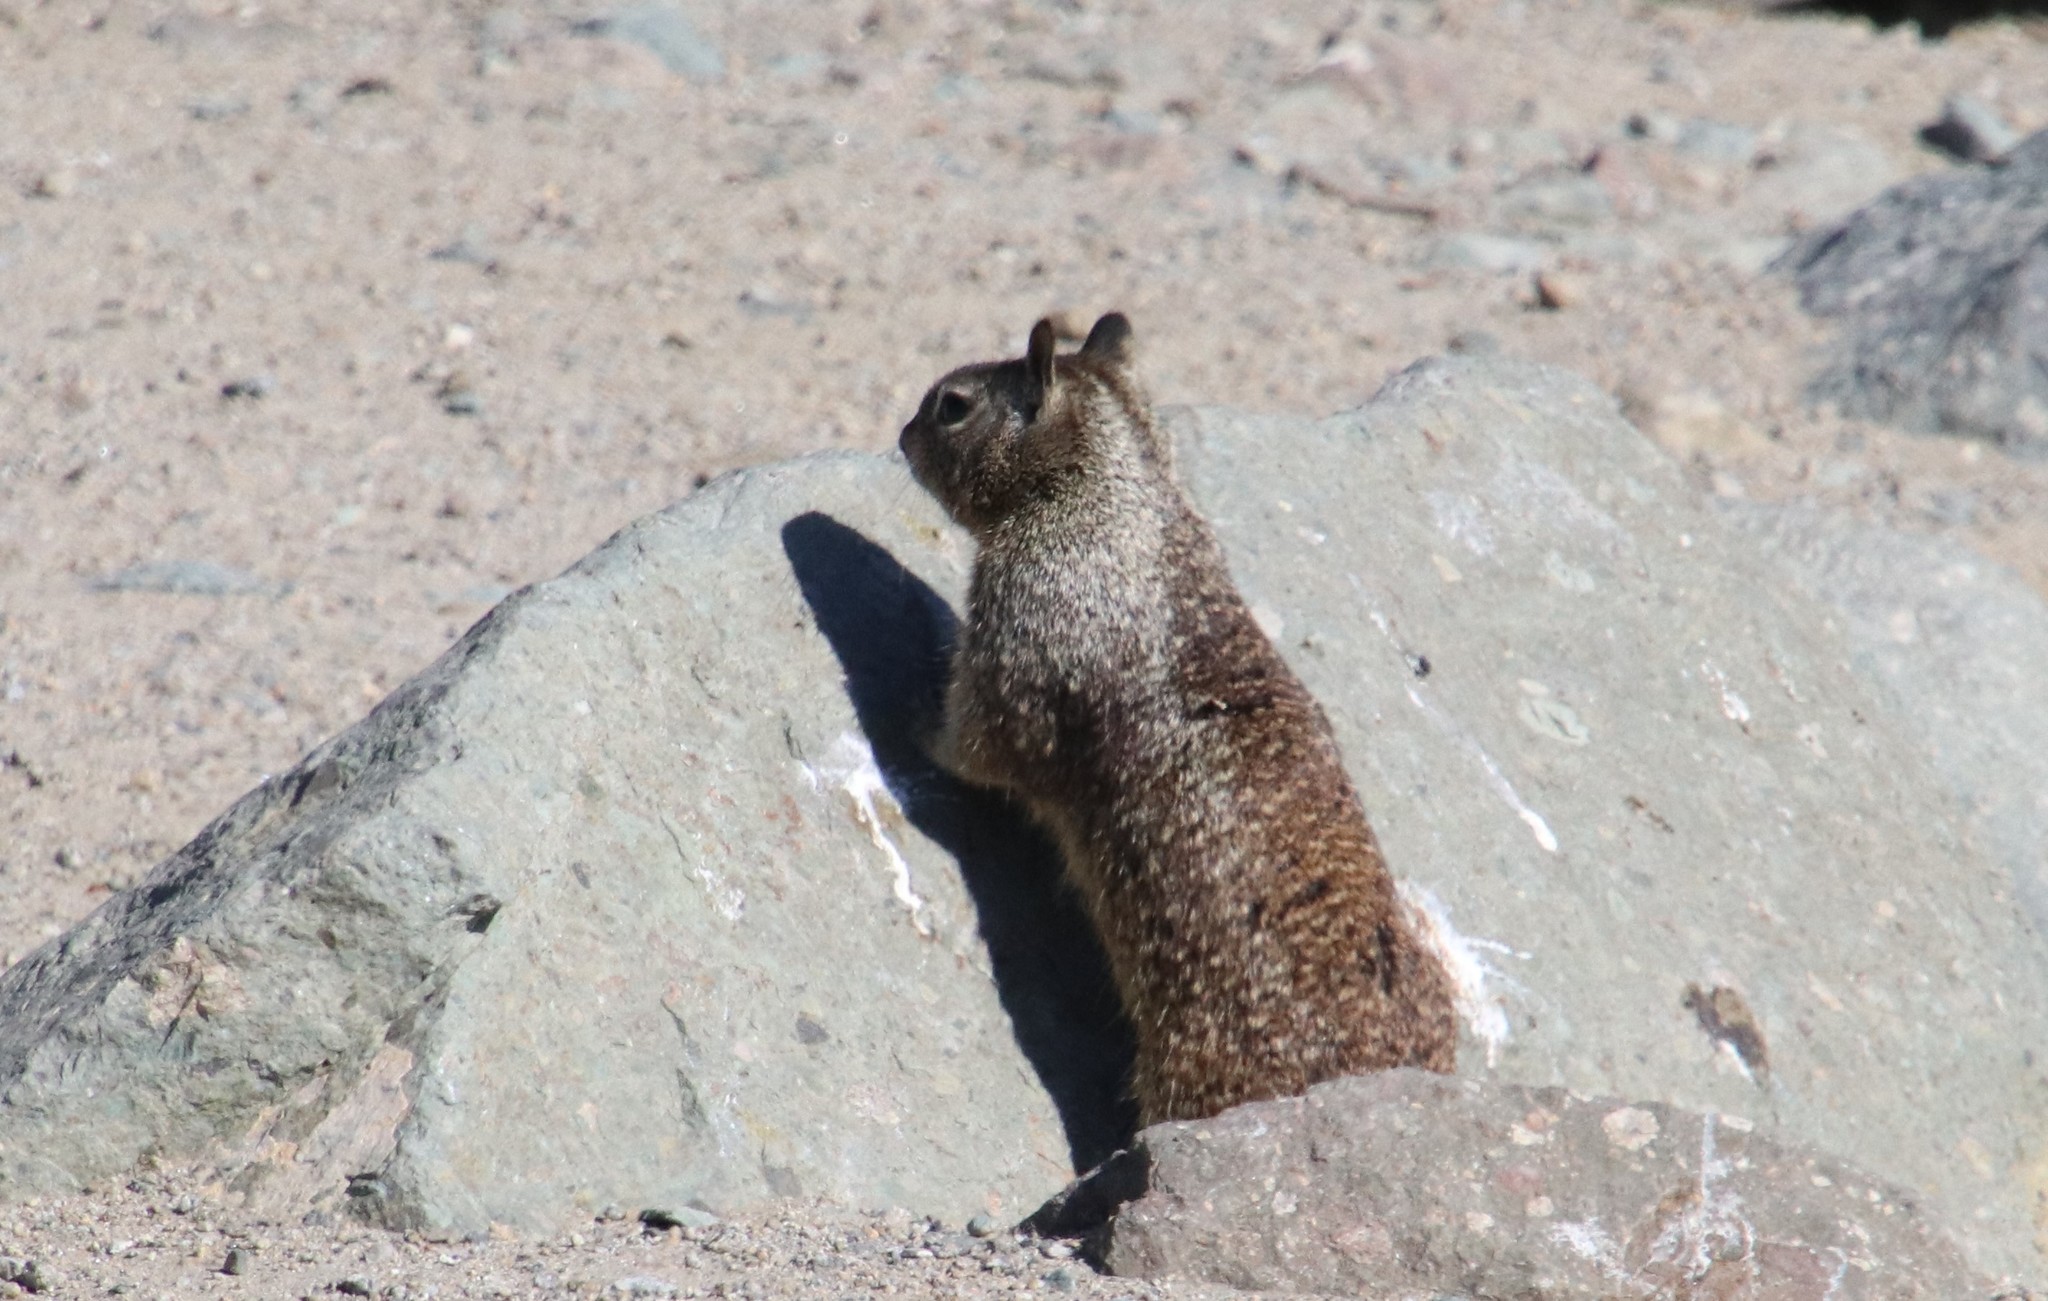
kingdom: Animalia
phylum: Chordata
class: Mammalia
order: Rodentia
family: Sciuridae
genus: Otospermophilus
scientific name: Otospermophilus beecheyi
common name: California ground squirrel
